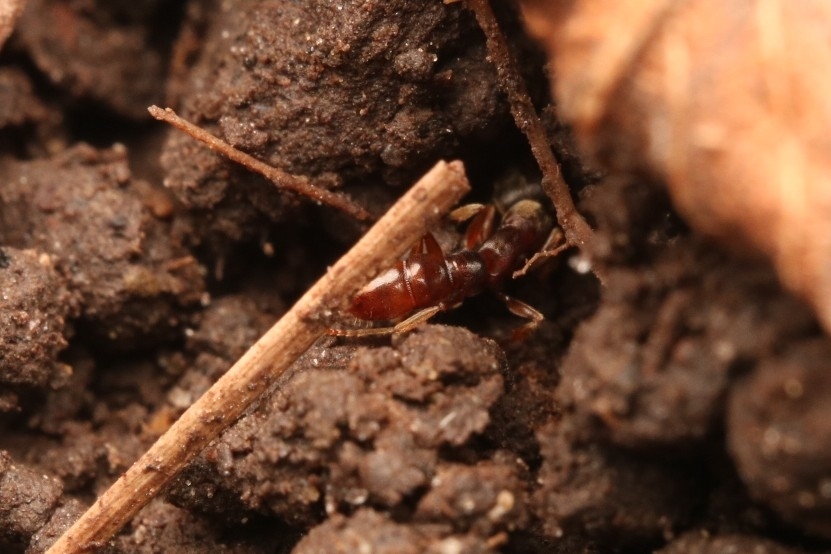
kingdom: Animalia
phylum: Arthropoda
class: Insecta
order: Hymenoptera
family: Formicidae
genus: Stigmatomma
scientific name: Stigmatomma pallipes
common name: Vampire ant
